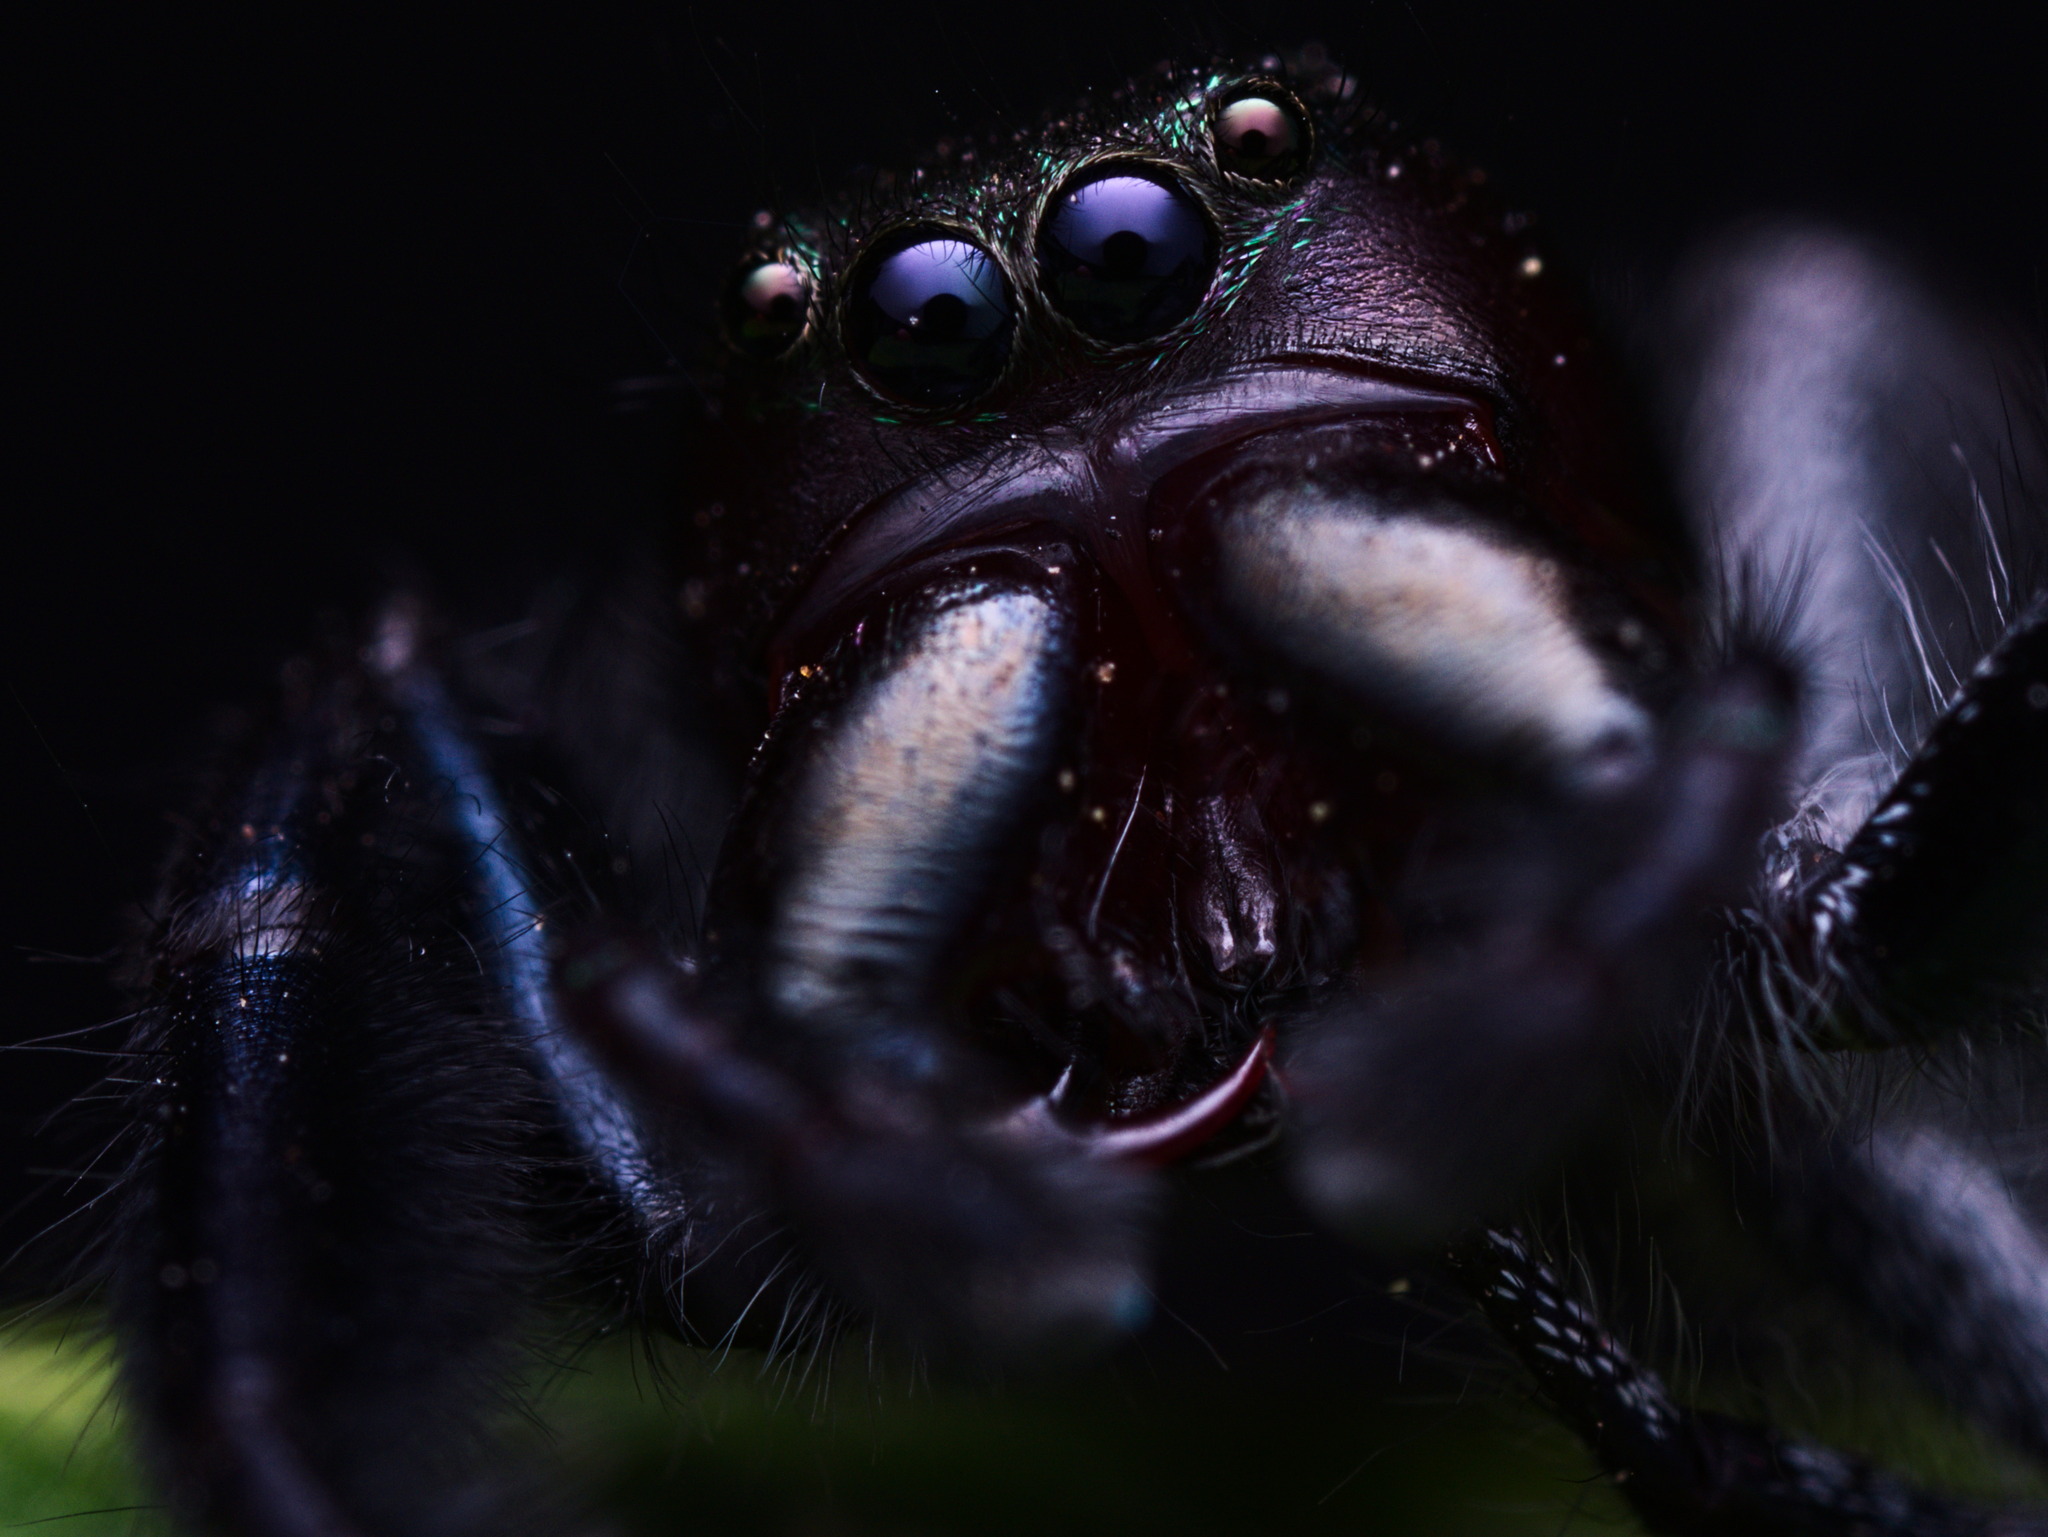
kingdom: Animalia
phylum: Arthropoda
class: Arachnida
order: Araneae
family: Salticidae
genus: Paraphidippus
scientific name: Paraphidippus fartilis
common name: Jumping spiders
